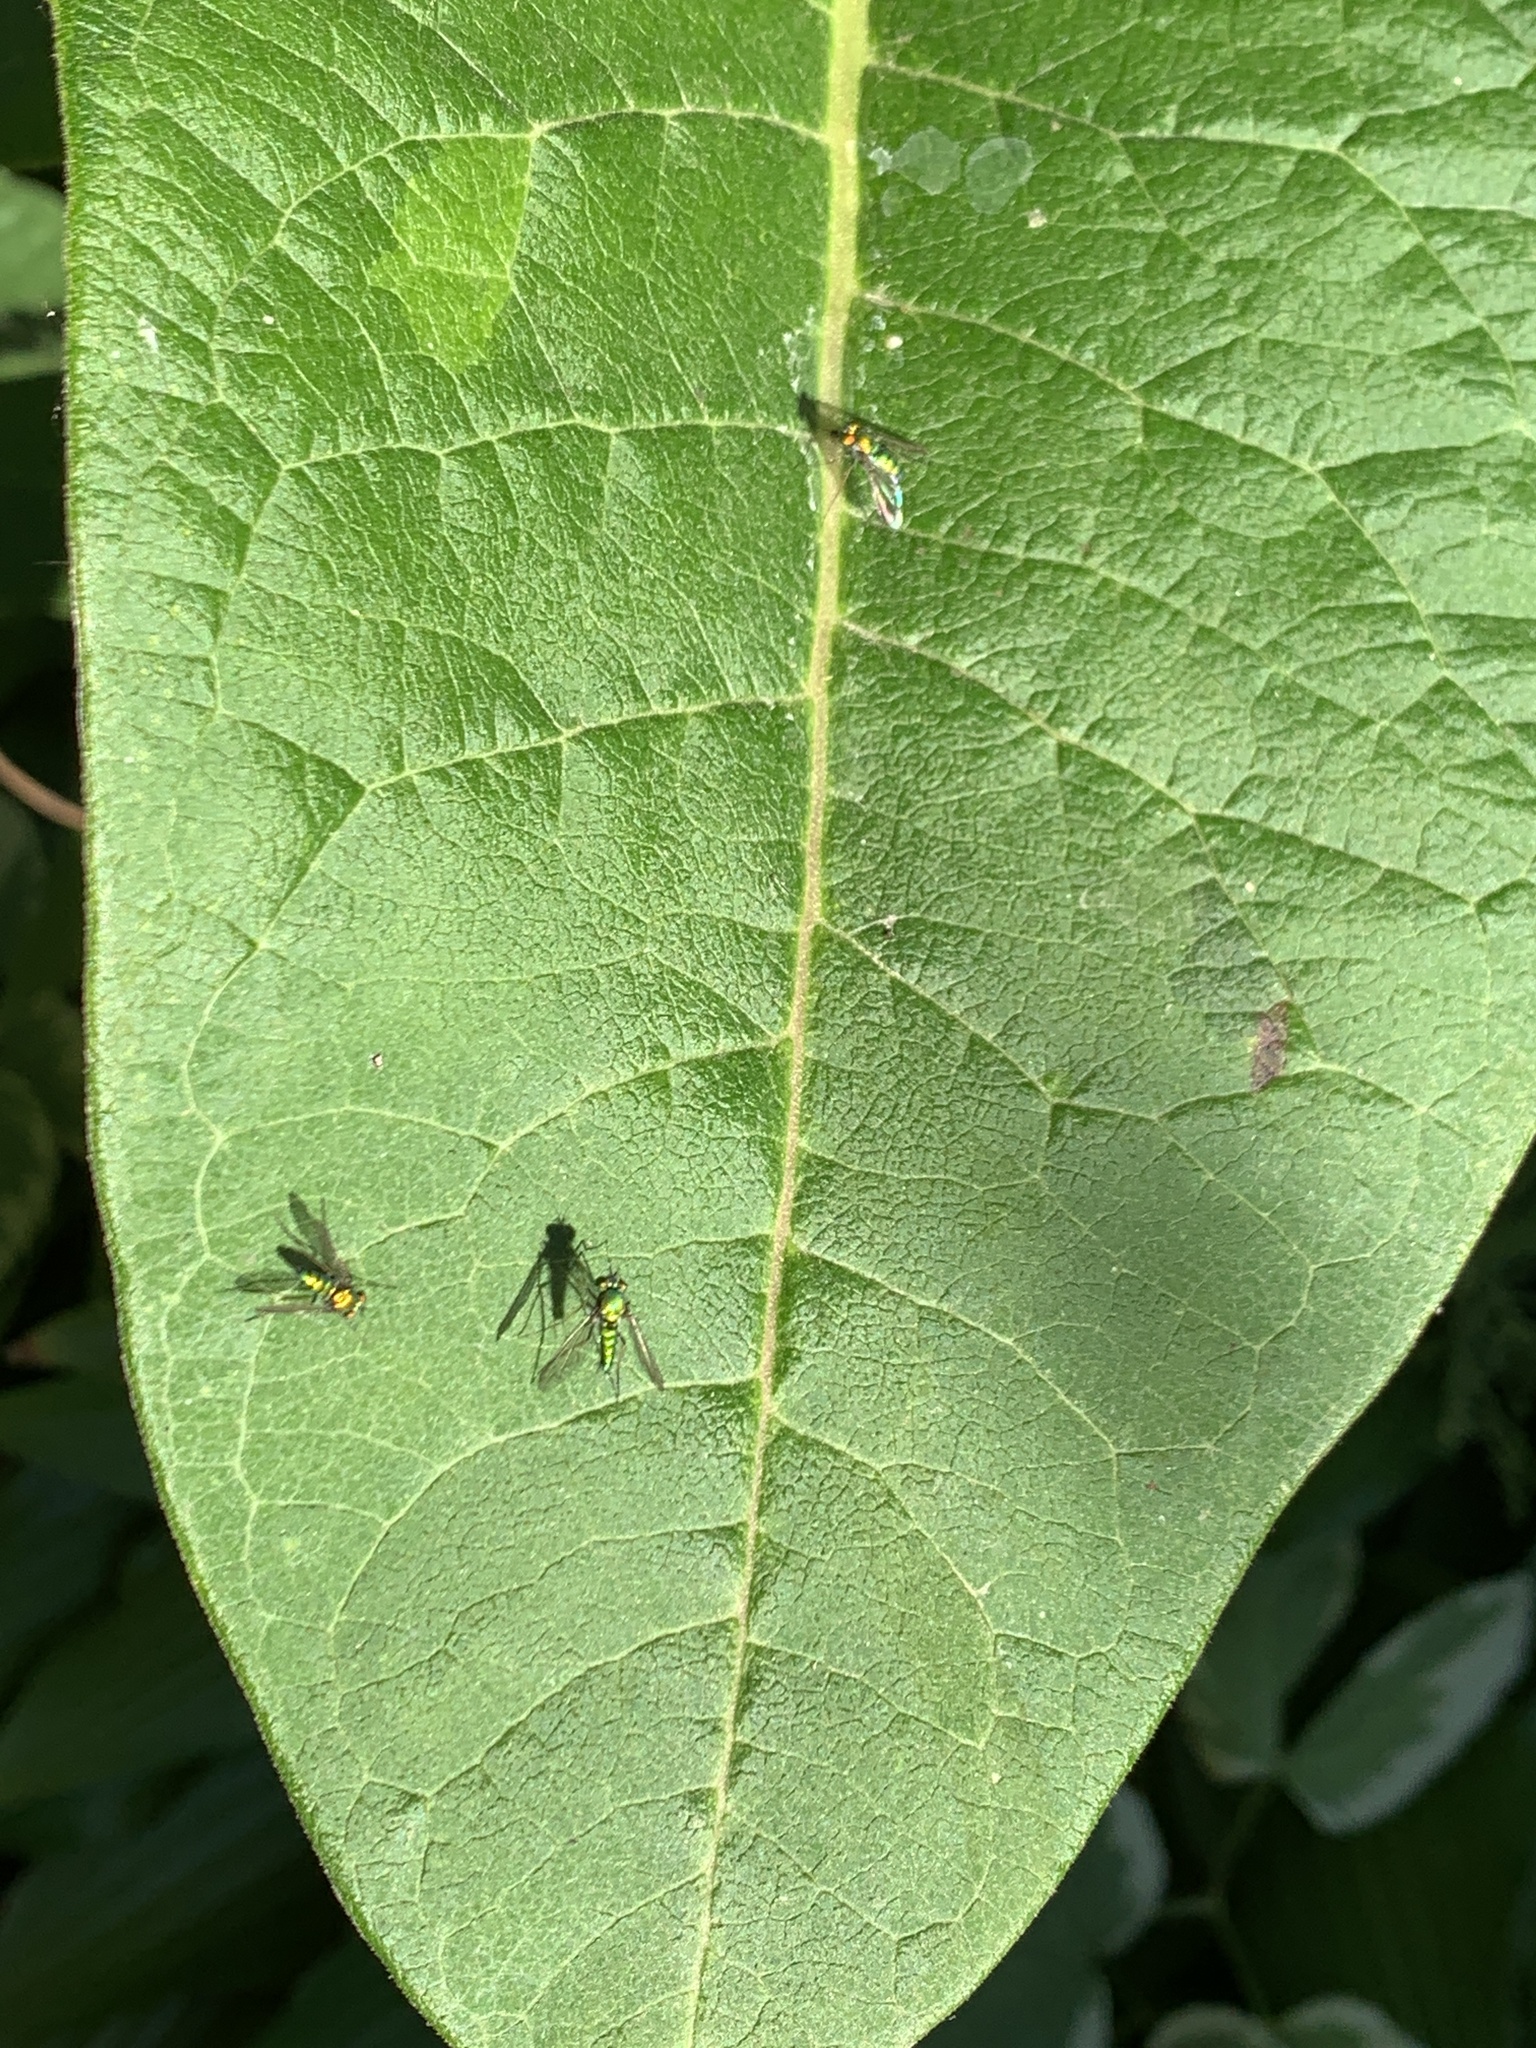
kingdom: Animalia
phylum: Arthropoda
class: Insecta
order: Diptera
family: Dolichopodidae
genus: Condylostylus
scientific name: Condylostylus comatus
